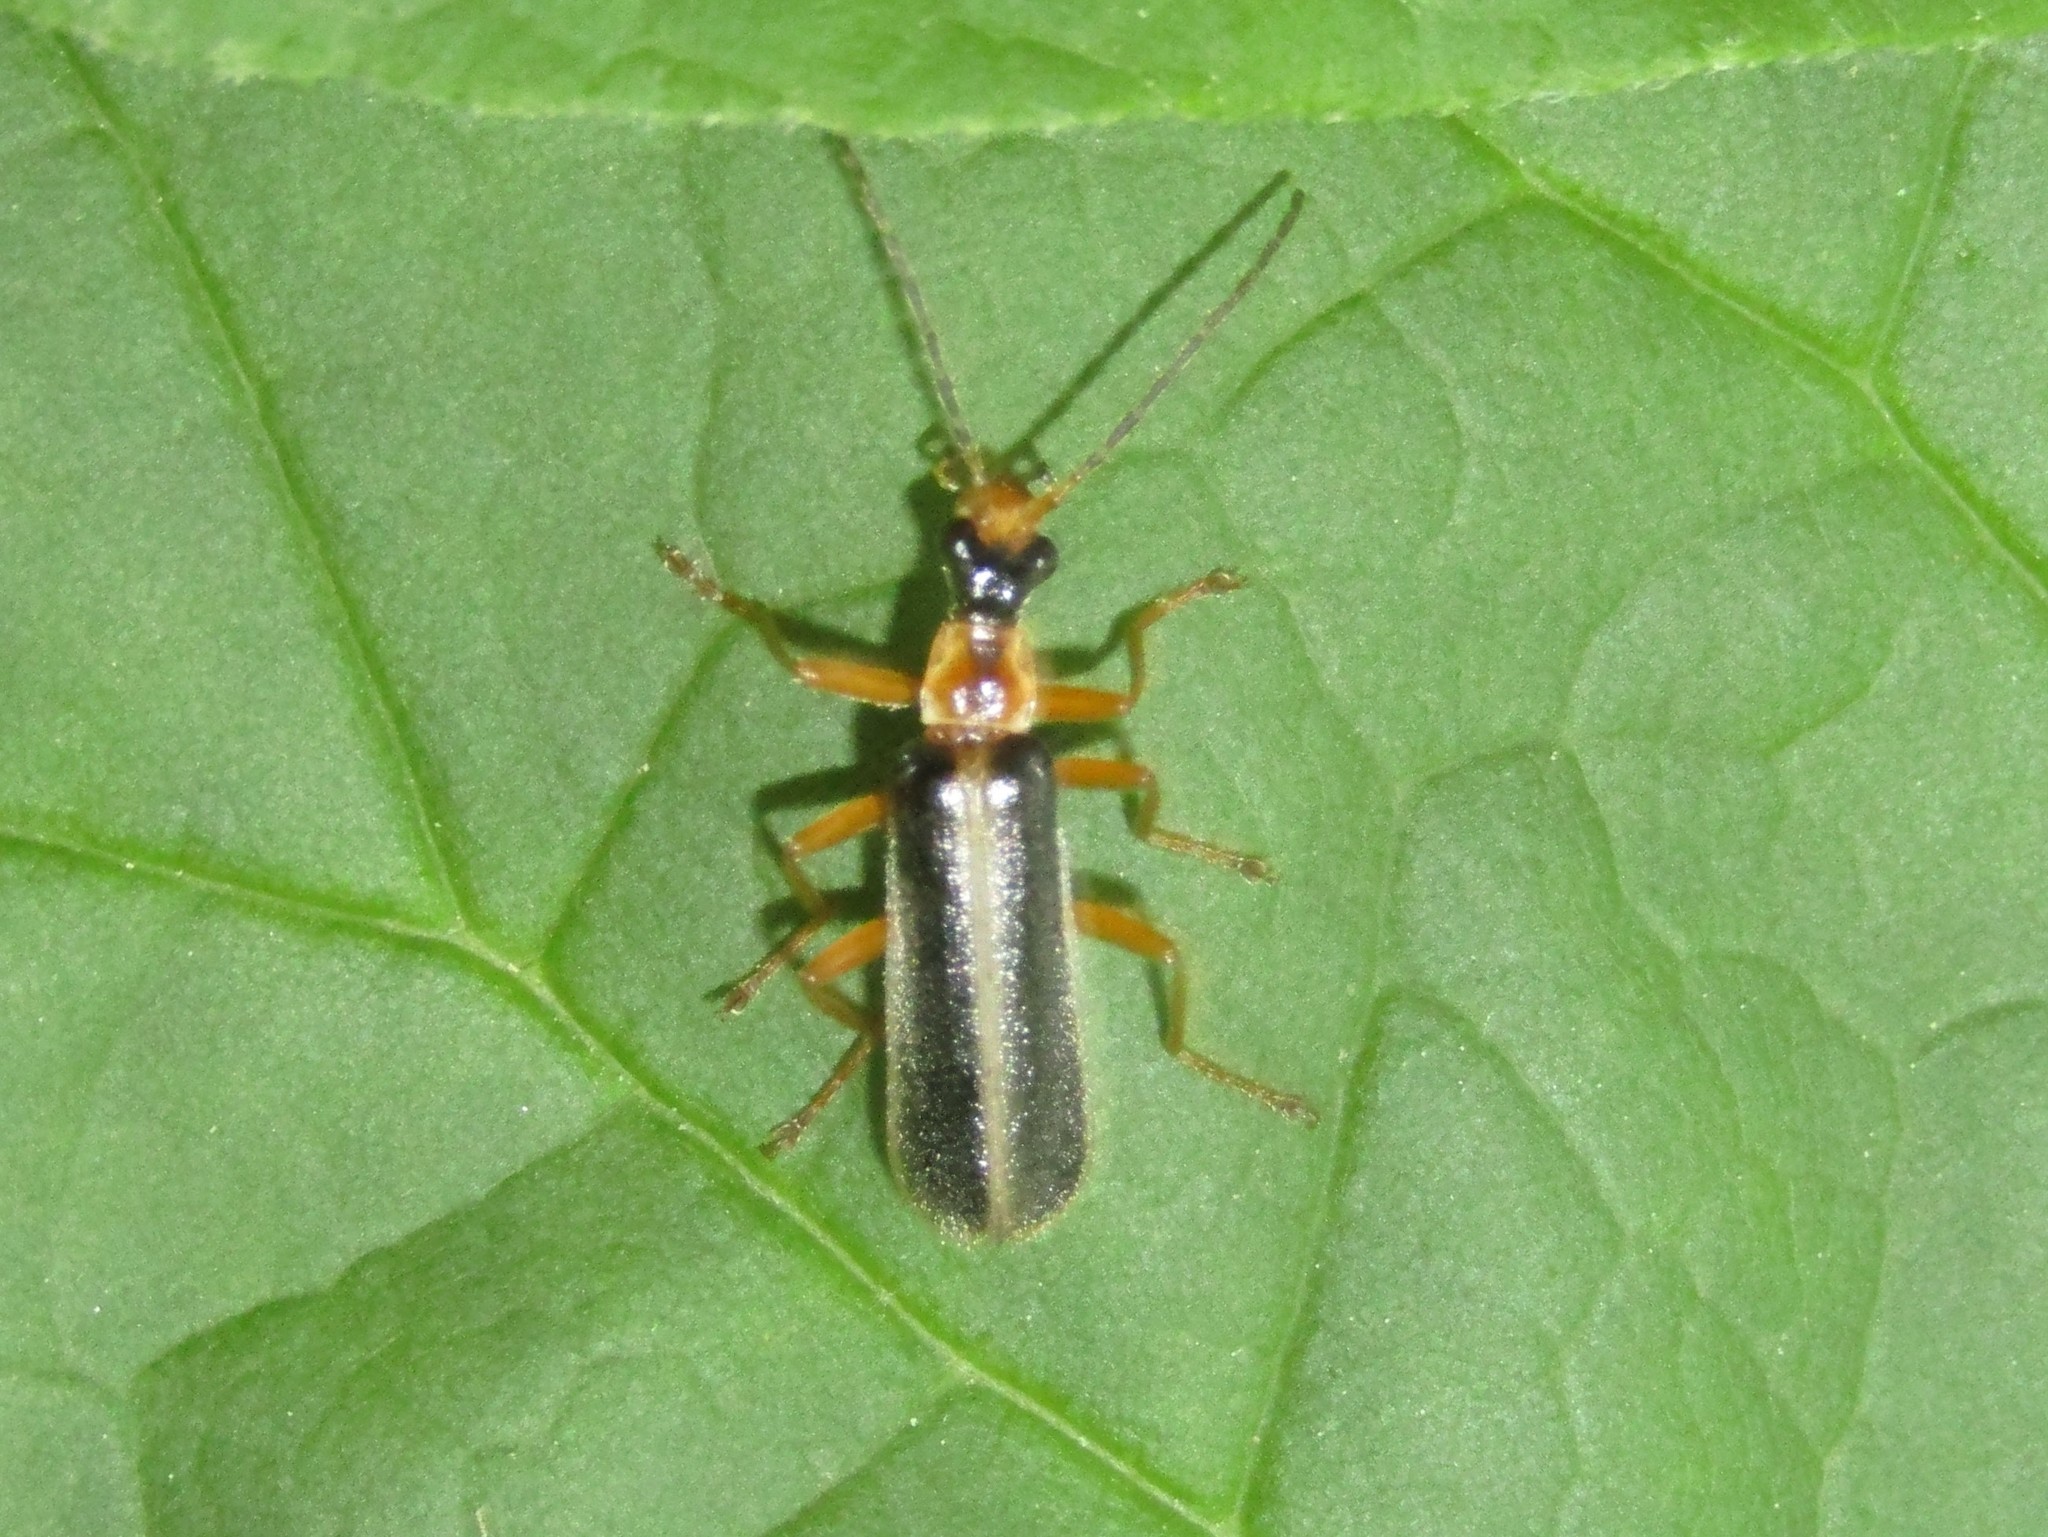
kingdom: Animalia
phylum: Arthropoda
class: Insecta
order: Coleoptera
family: Cantharidae
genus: Podabrus
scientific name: Podabrus brunnicollis
